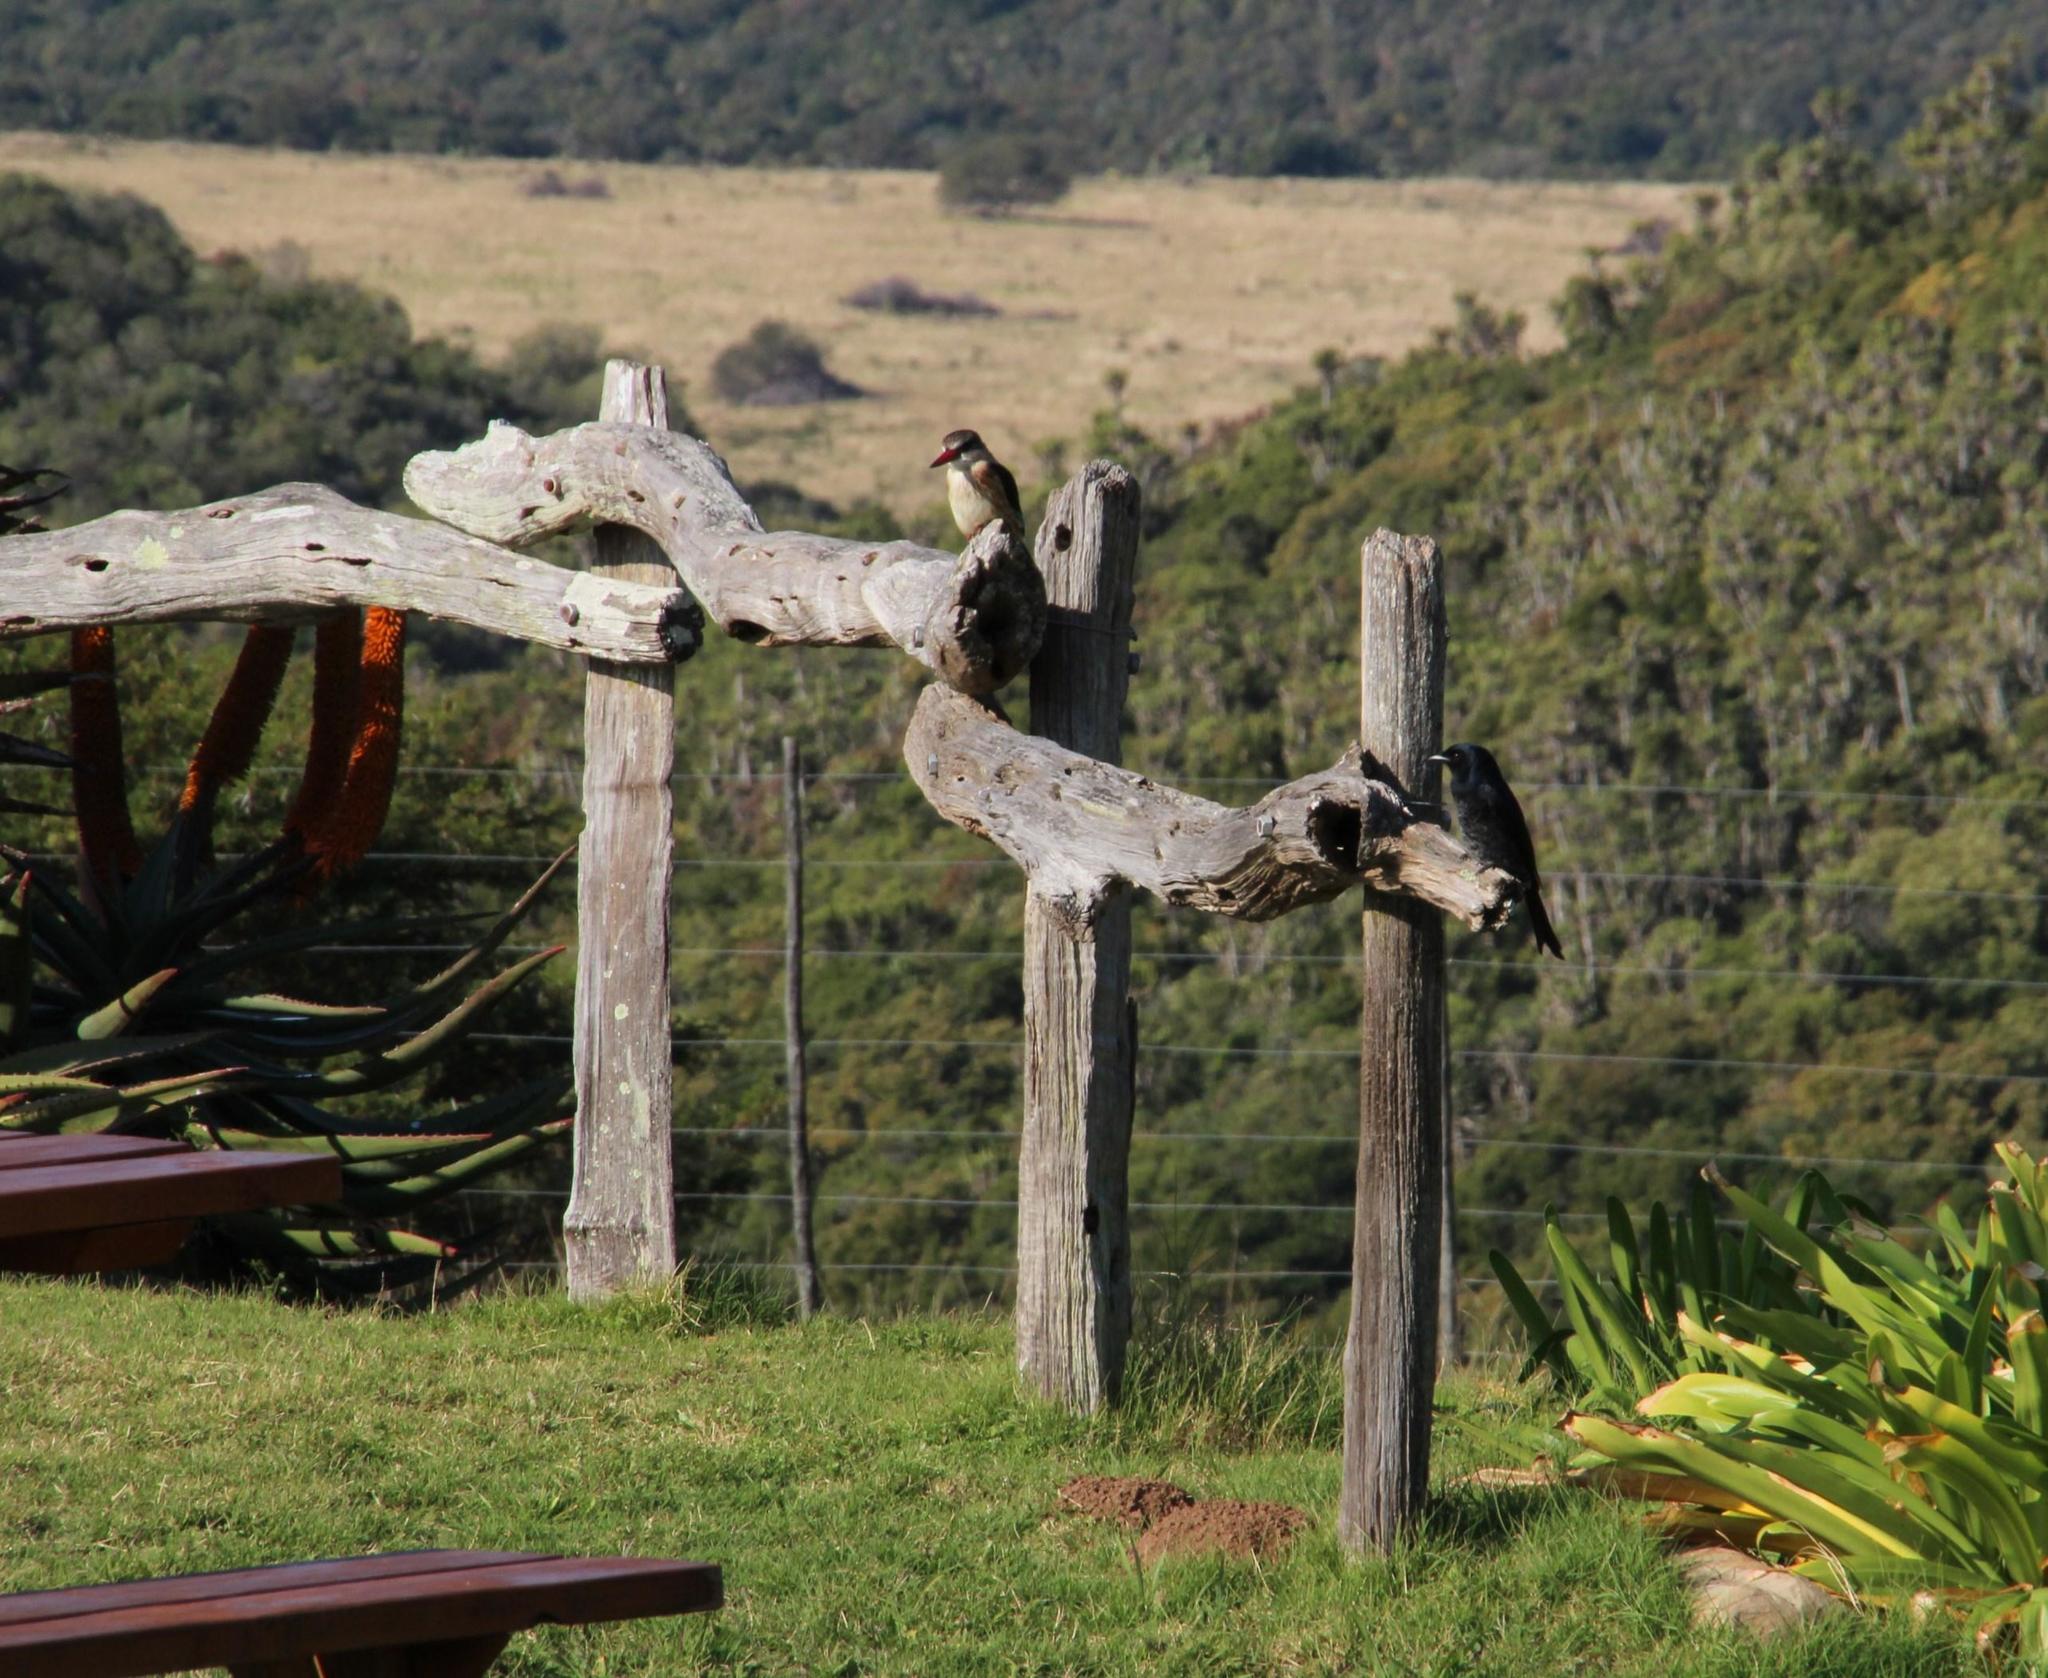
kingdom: Animalia
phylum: Chordata
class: Aves
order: Passeriformes
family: Dicruridae
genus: Dicrurus
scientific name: Dicrurus adsimilis
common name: Fork-tailed drongo
